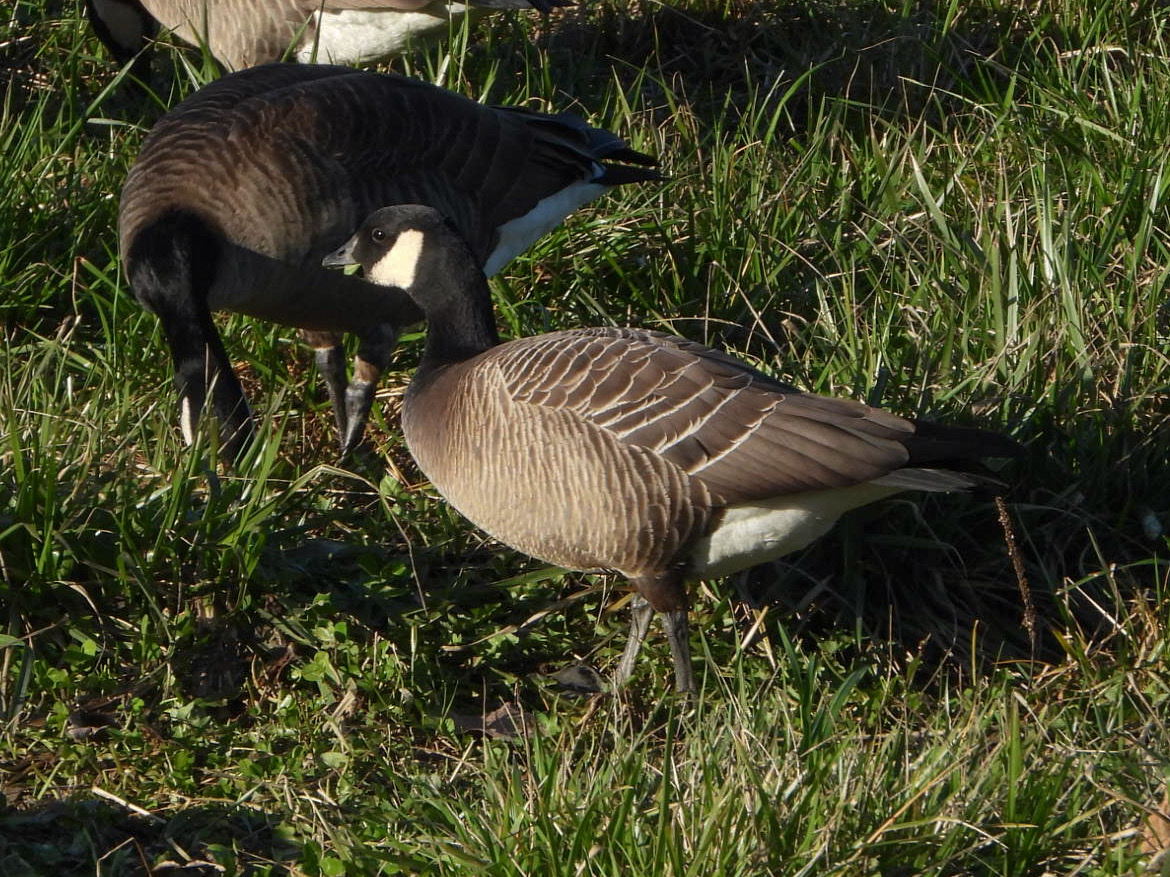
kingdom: Animalia
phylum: Chordata
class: Aves
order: Anseriformes
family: Anatidae
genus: Branta
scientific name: Branta hutchinsii
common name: Cackling goose
